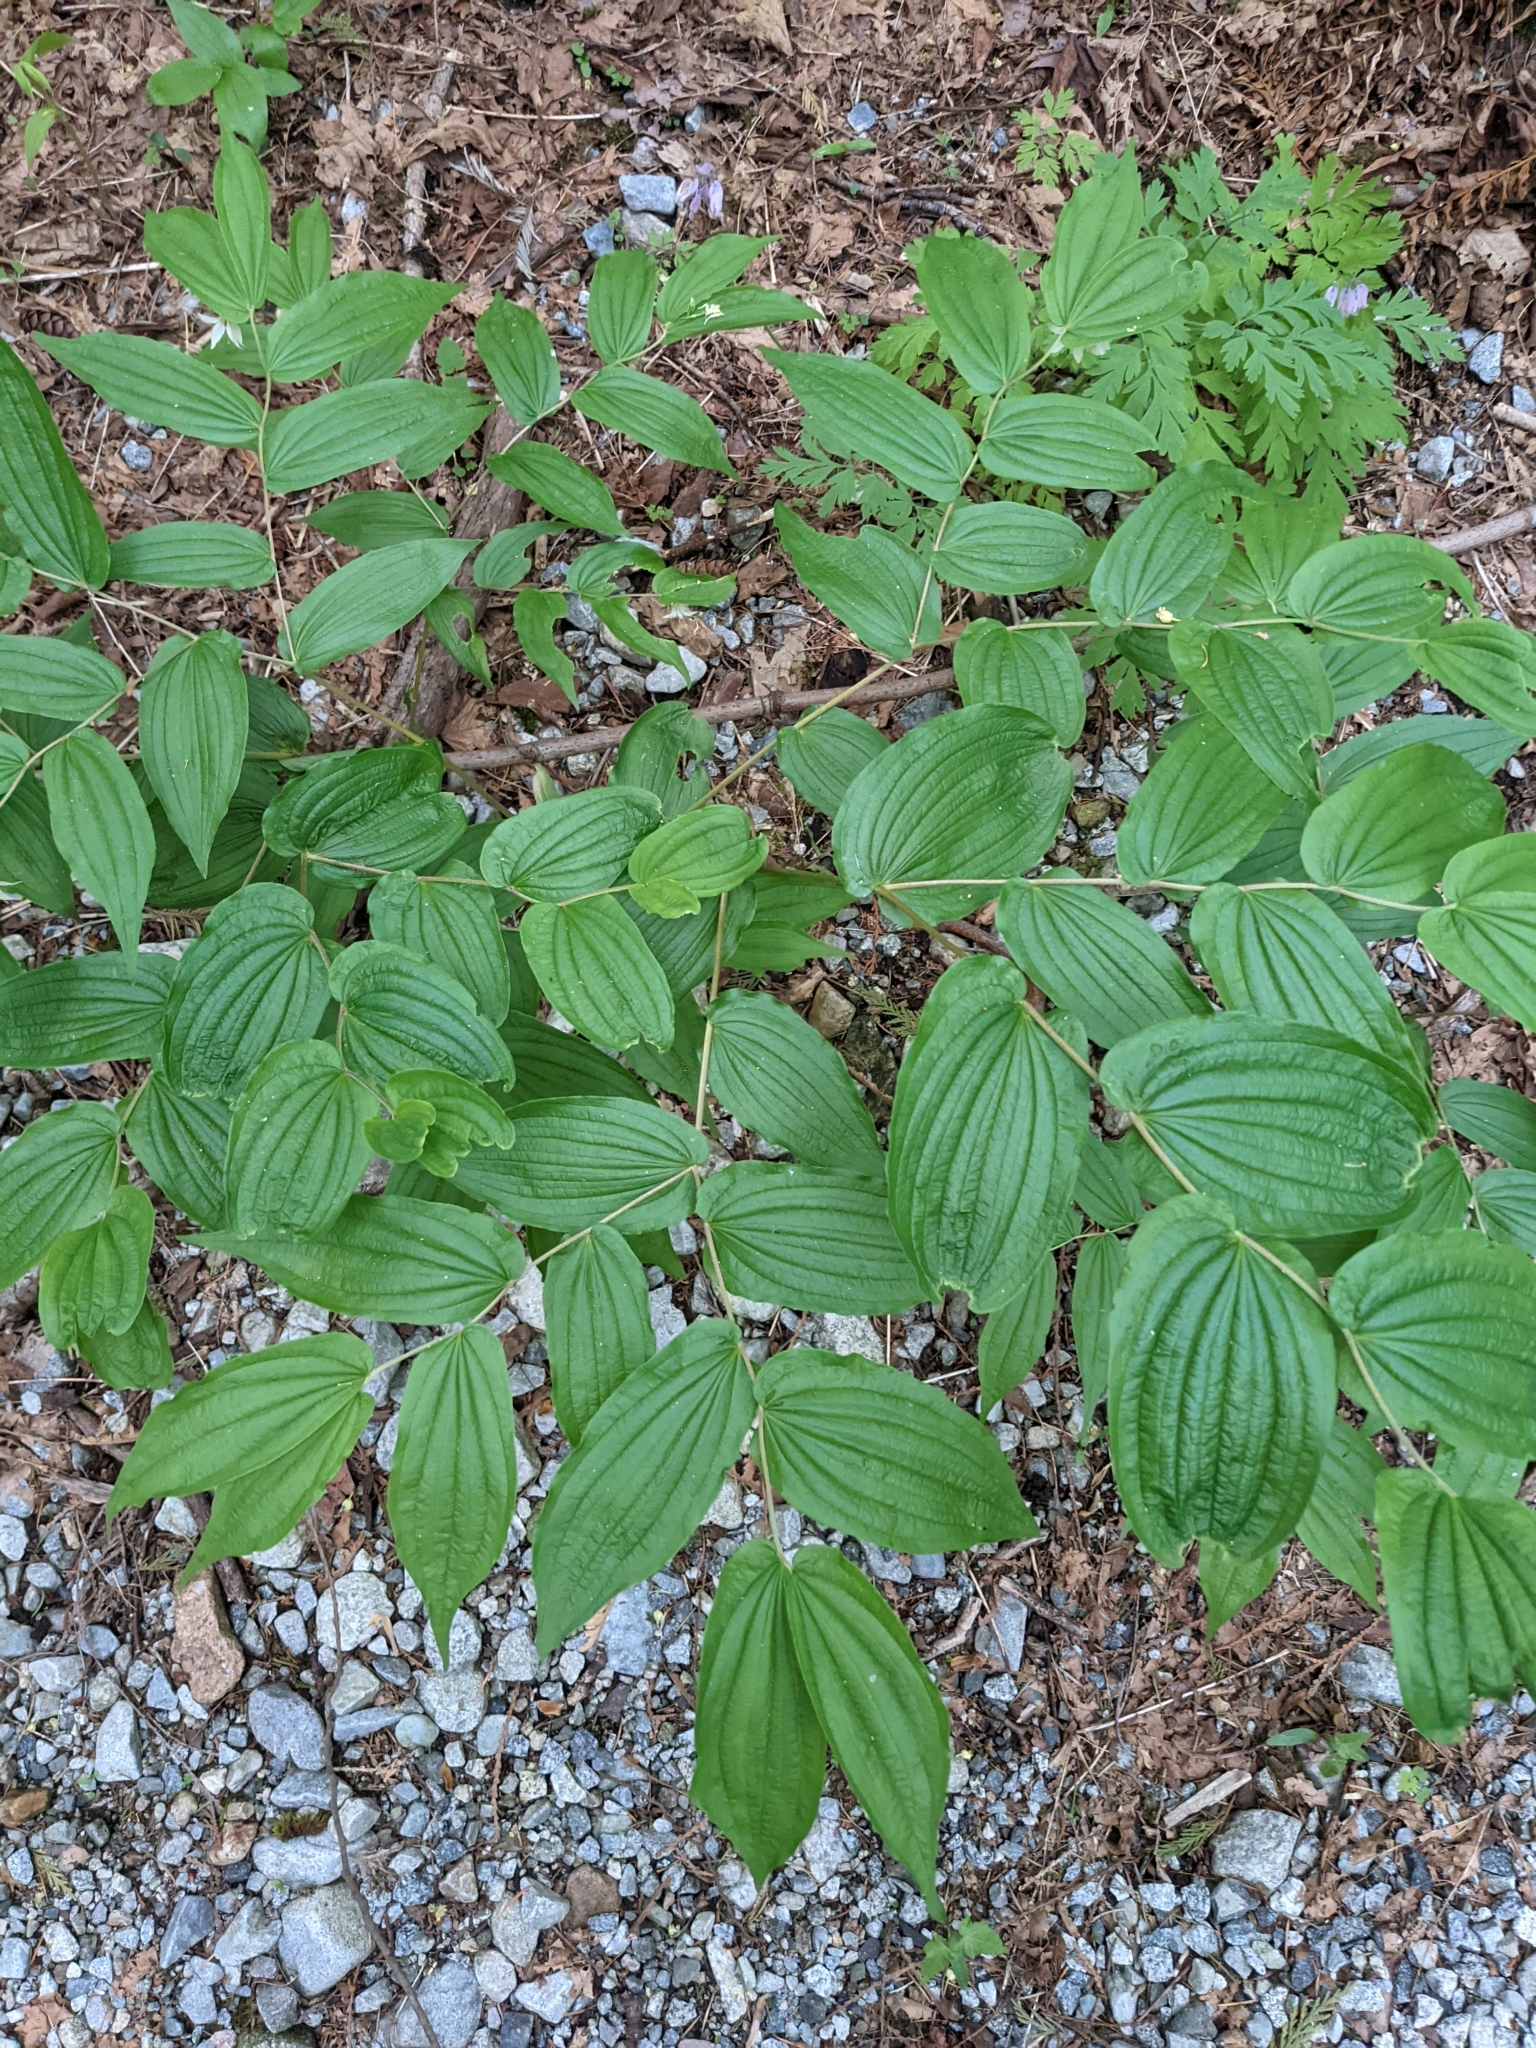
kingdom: Plantae
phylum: Tracheophyta
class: Liliopsida
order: Liliales
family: Liliaceae
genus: Prosartes
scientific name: Prosartes hookeri
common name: Fairy-bells
